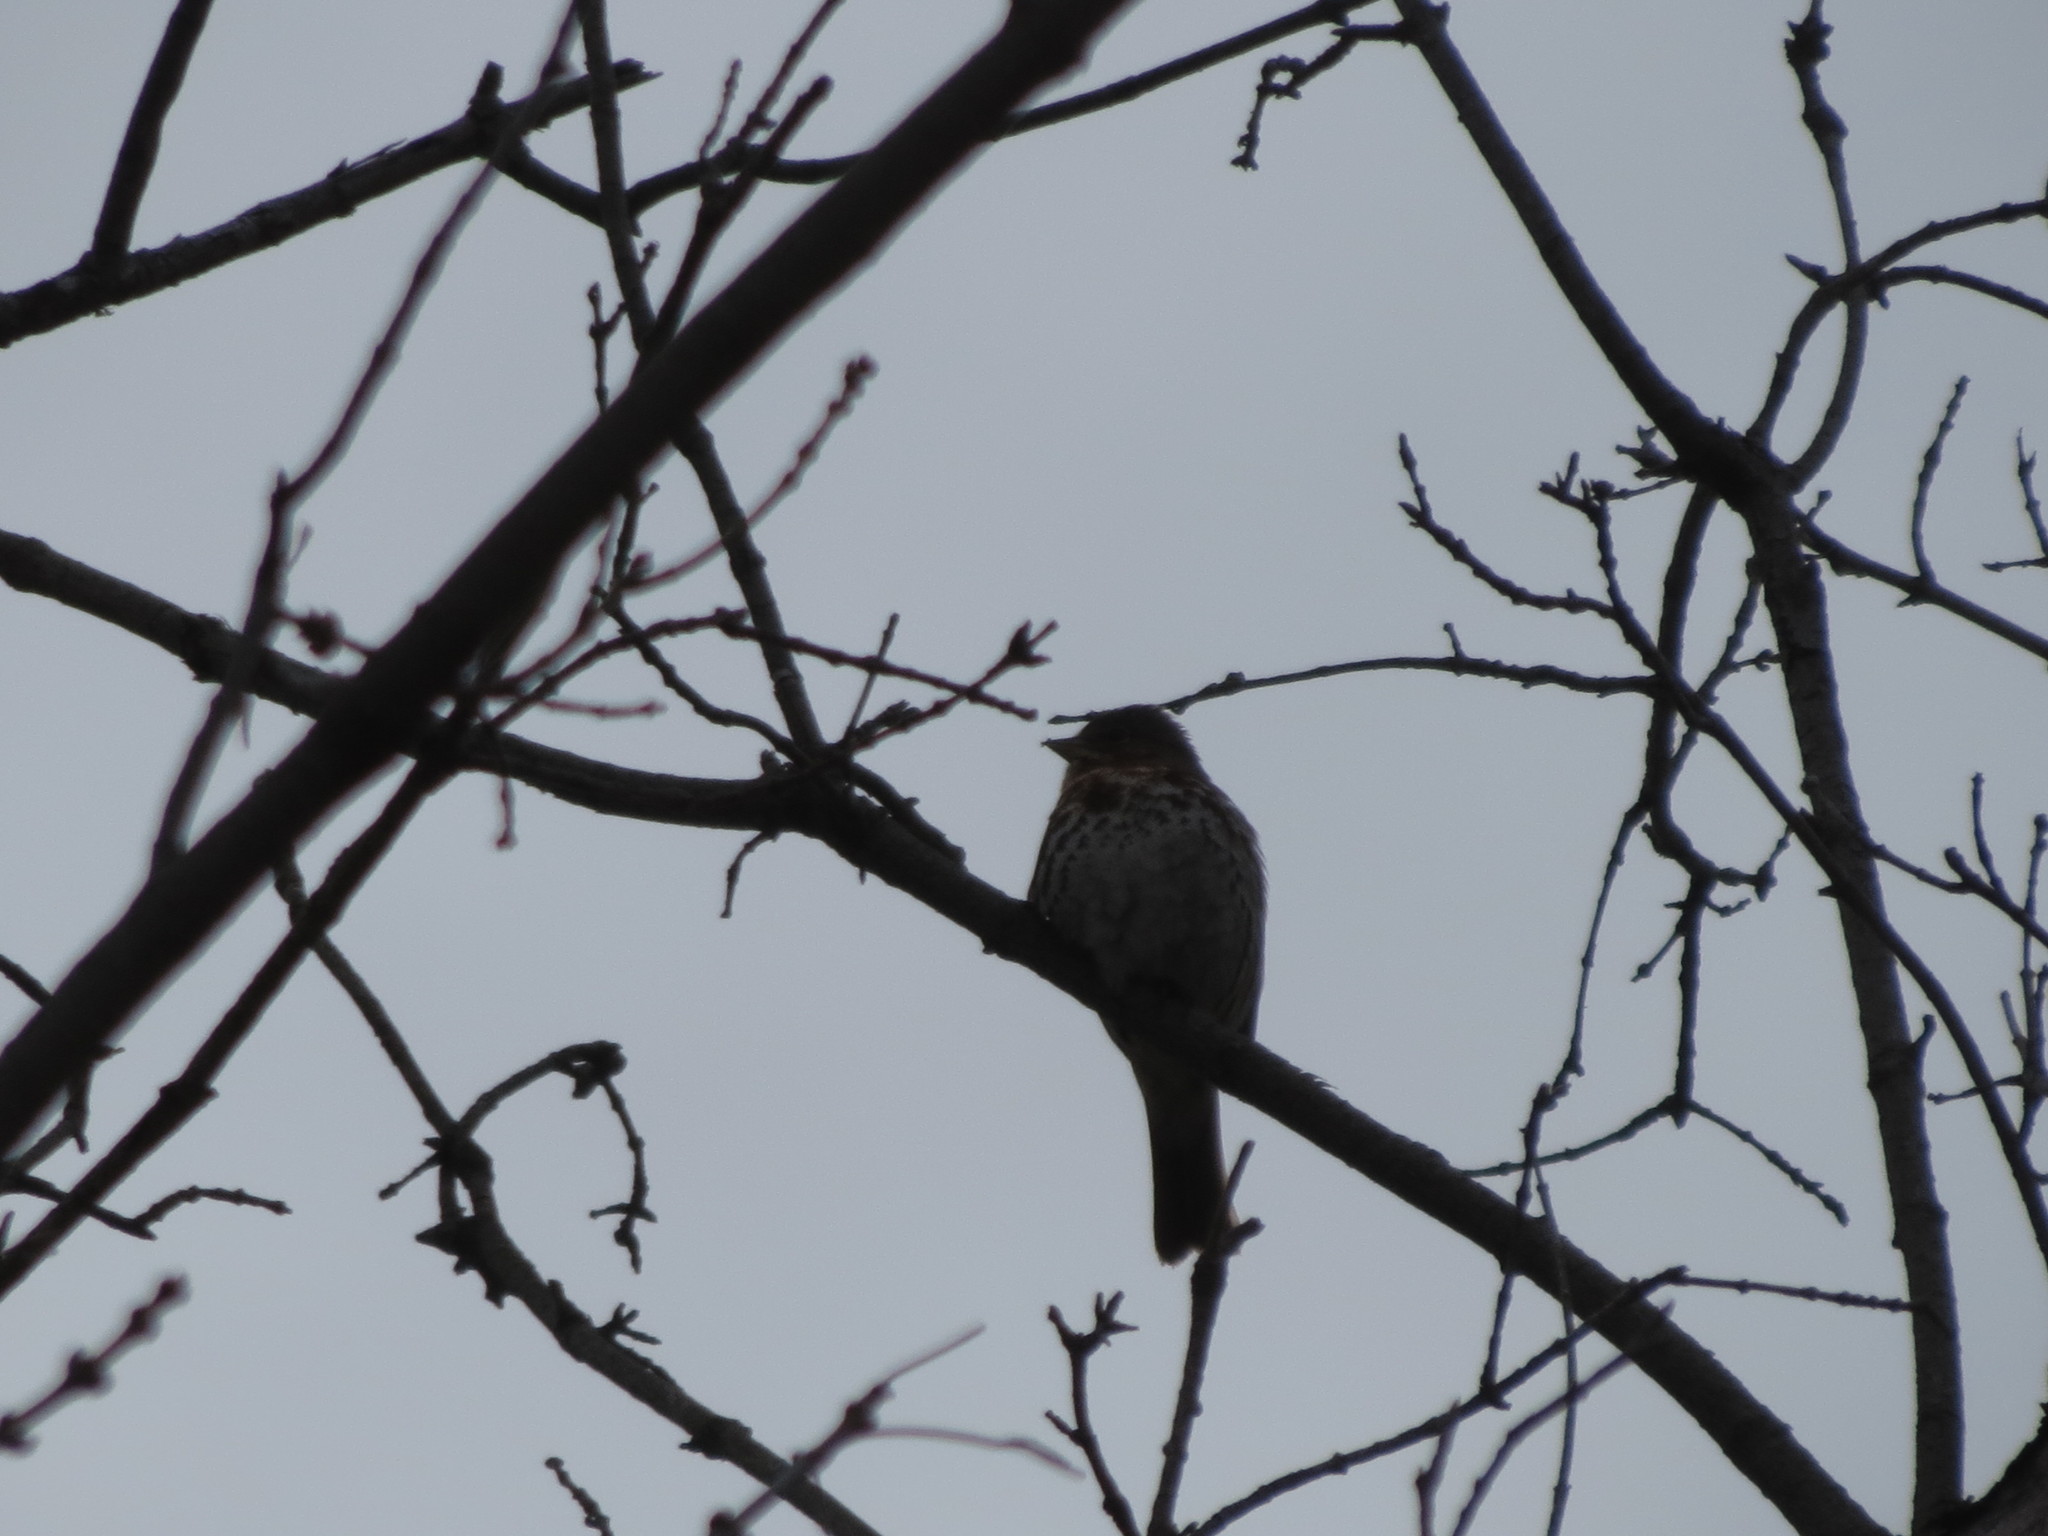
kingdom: Animalia
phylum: Chordata
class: Aves
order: Passeriformes
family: Passerellidae
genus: Passerella
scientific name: Passerella iliaca
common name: Fox sparrow
